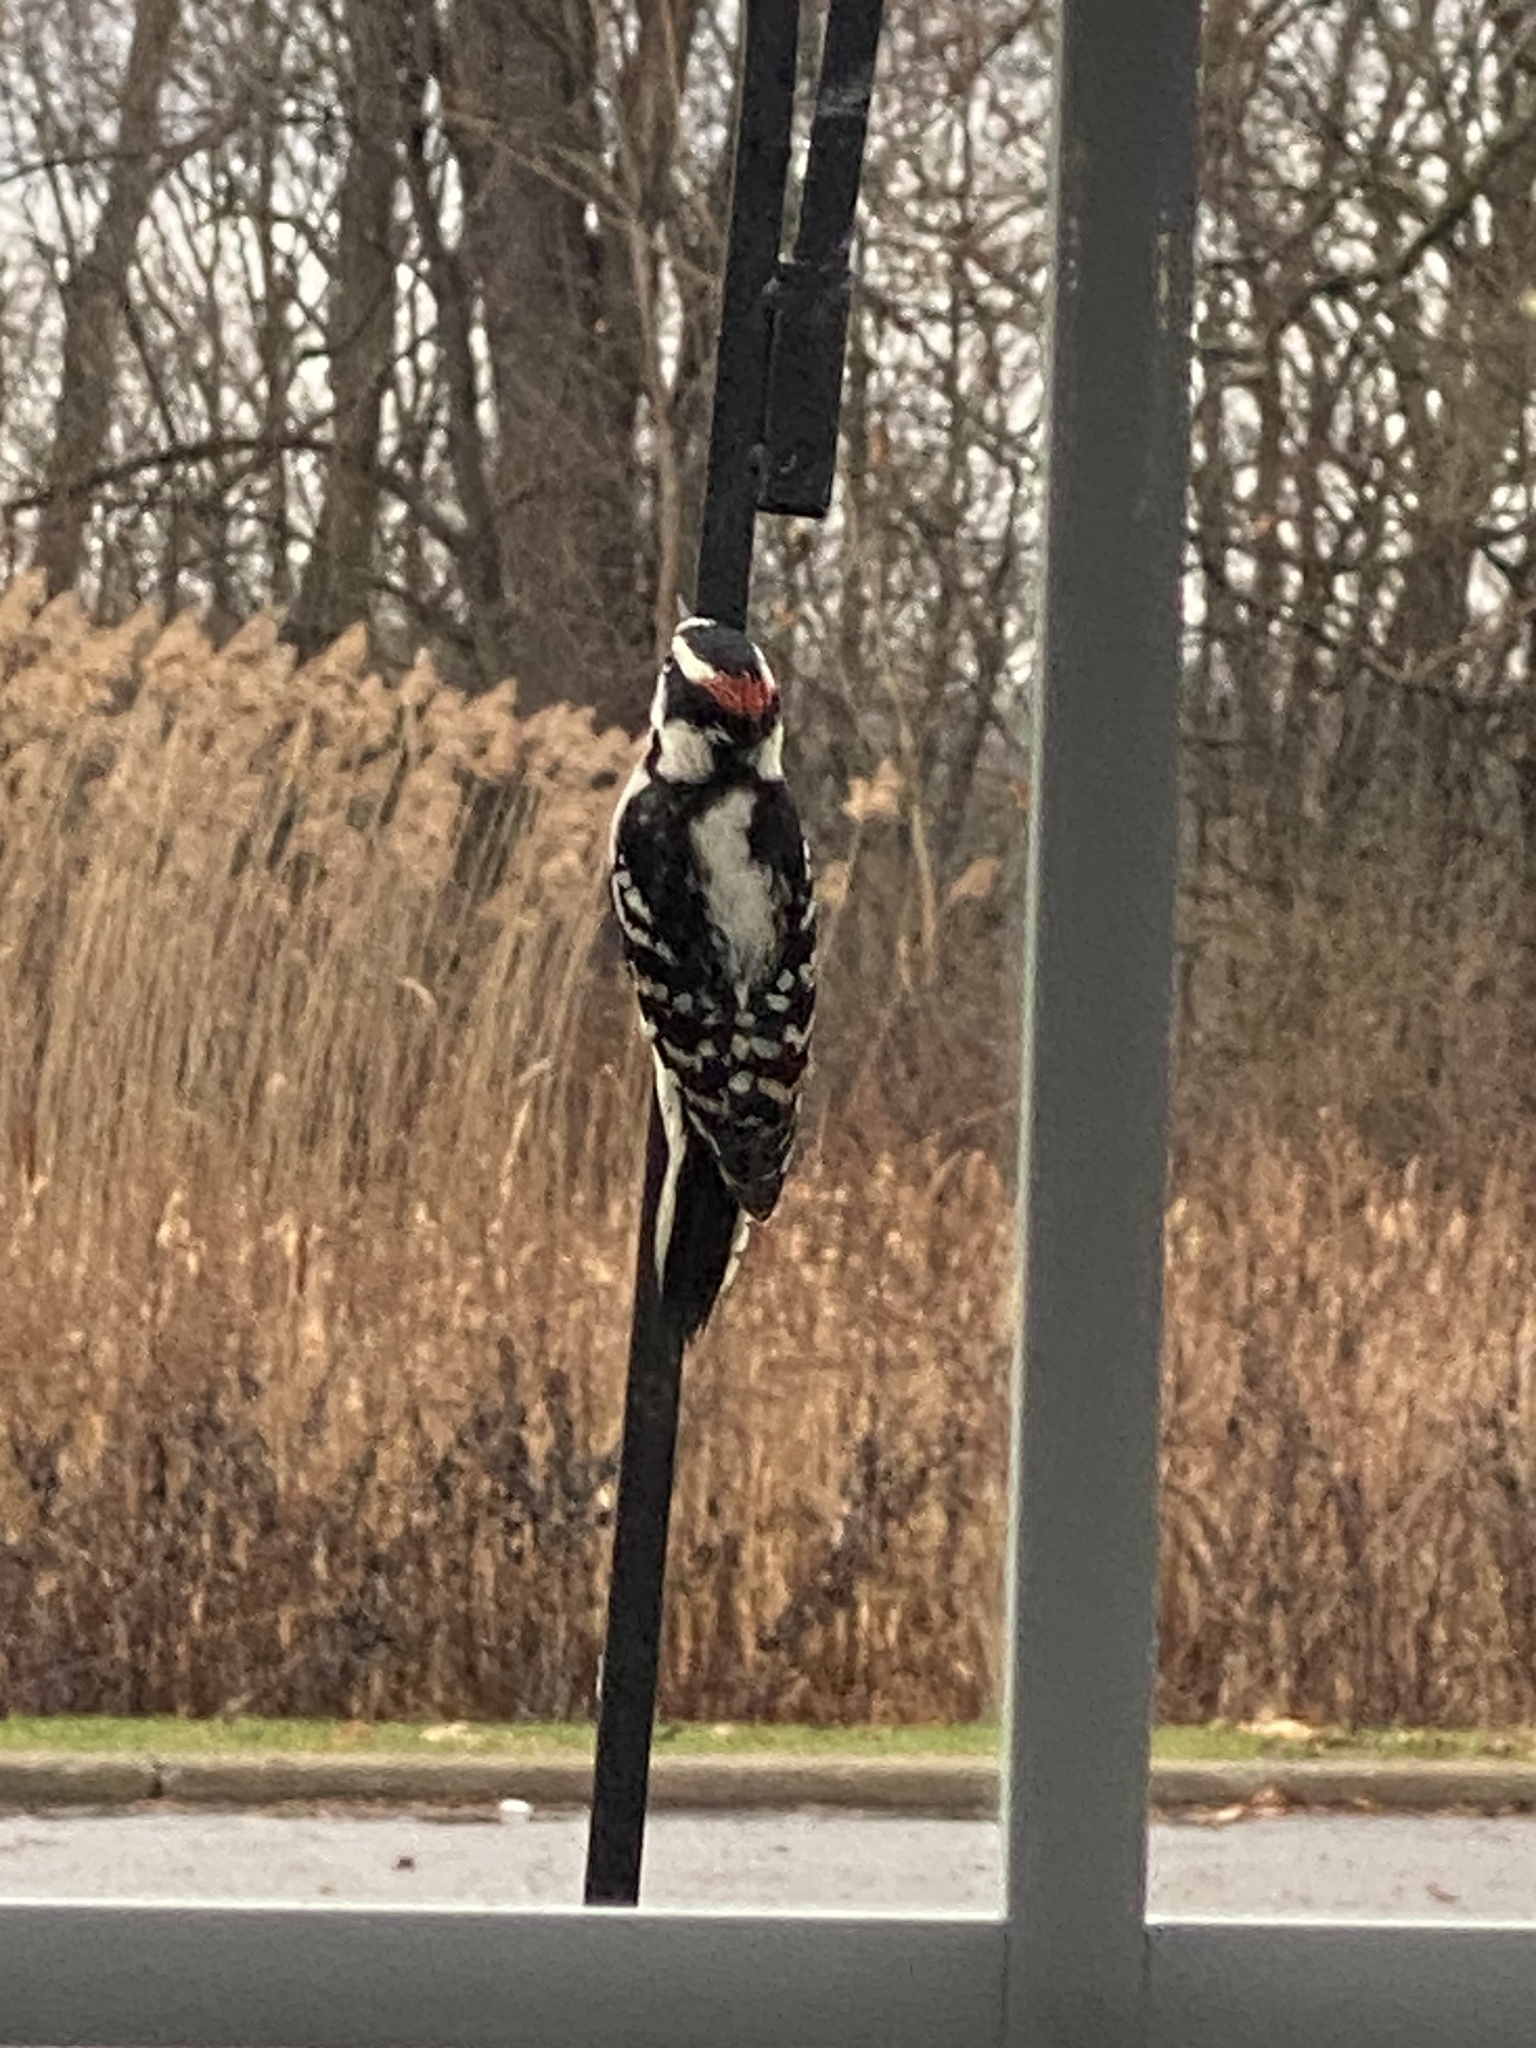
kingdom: Animalia
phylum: Chordata
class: Aves
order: Piciformes
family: Picidae
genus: Dryobates
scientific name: Dryobates pubescens
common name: Downy woodpecker
